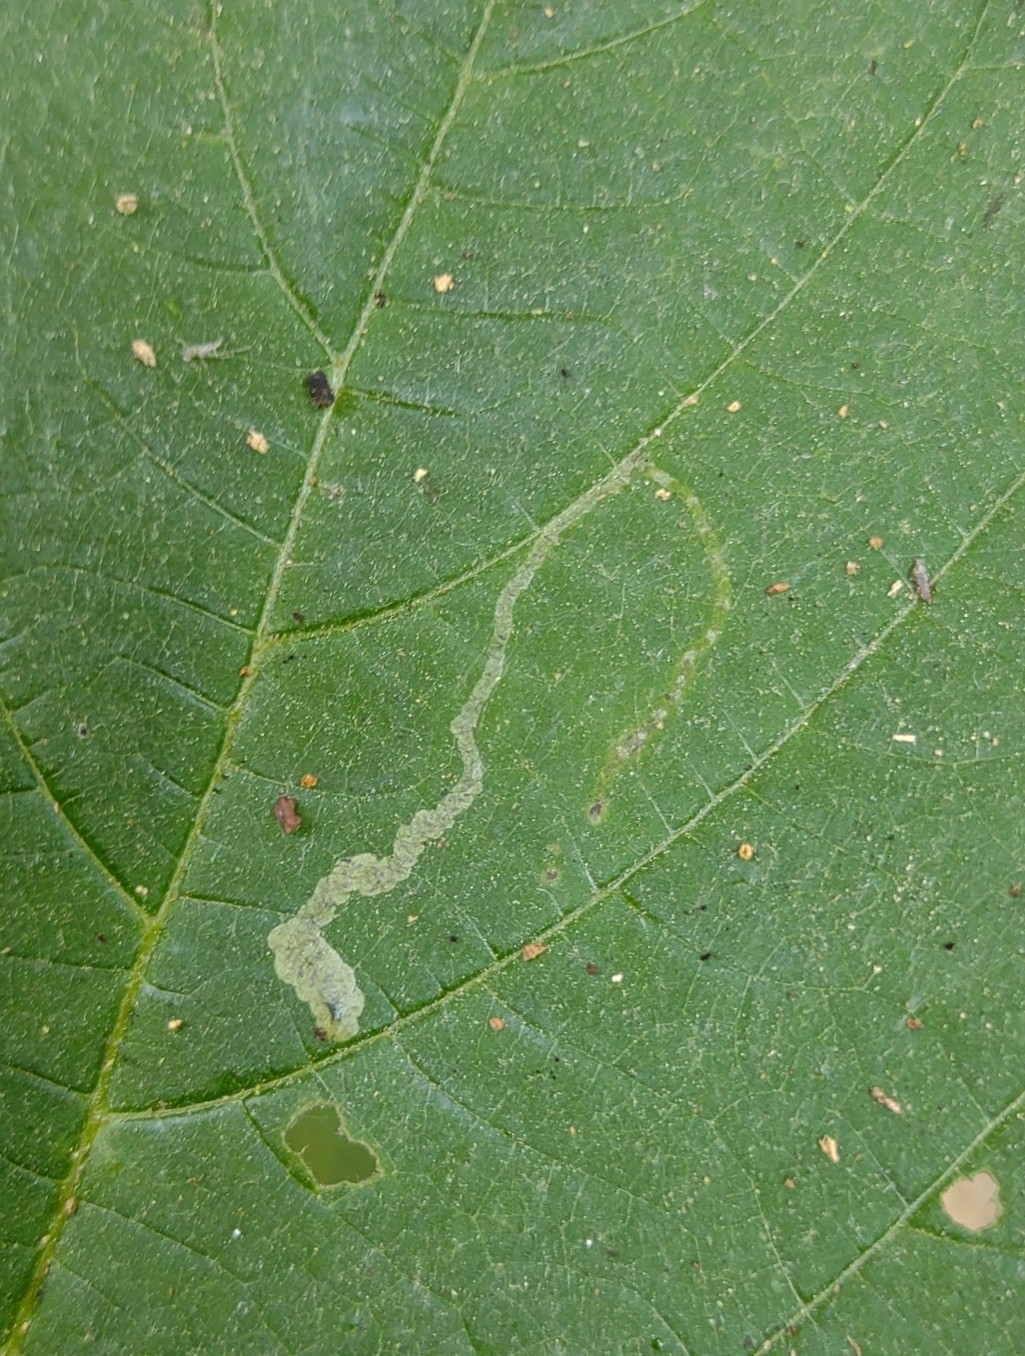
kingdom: Animalia
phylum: Arthropoda
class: Insecta
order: Diptera
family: Agromyzidae
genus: Agromyza
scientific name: Agromyza diversa
